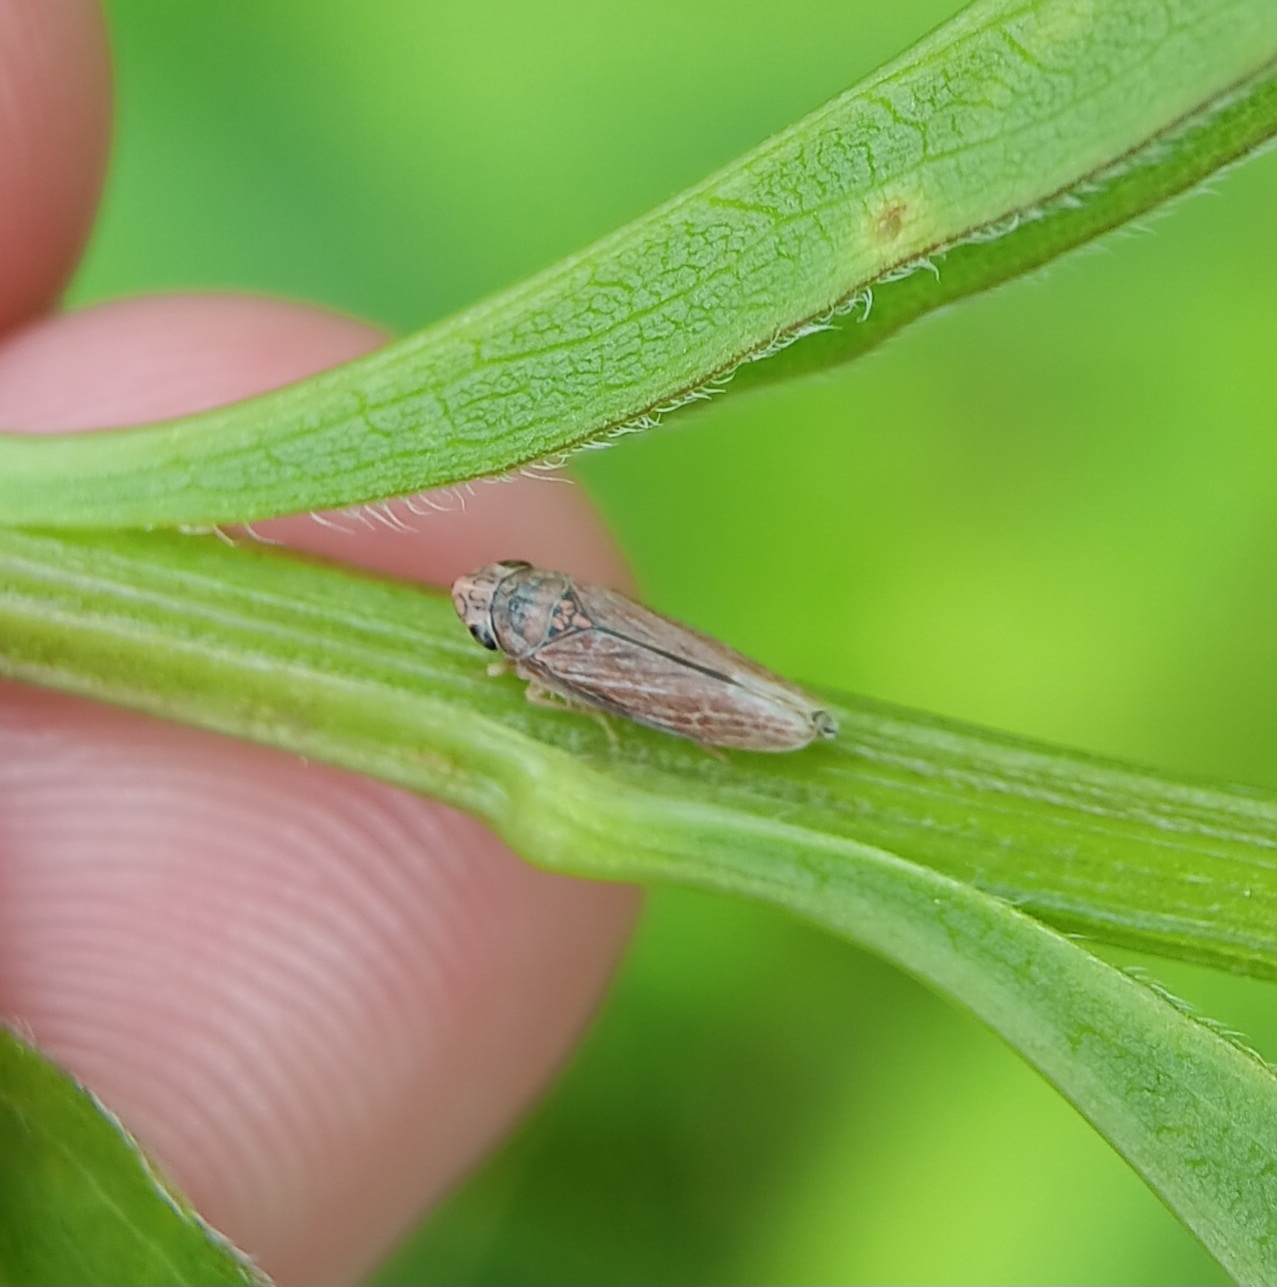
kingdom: Animalia
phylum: Arthropoda
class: Insecta
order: Hemiptera
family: Cicadellidae
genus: Neokolla
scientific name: Neokolla hieroglyphica
